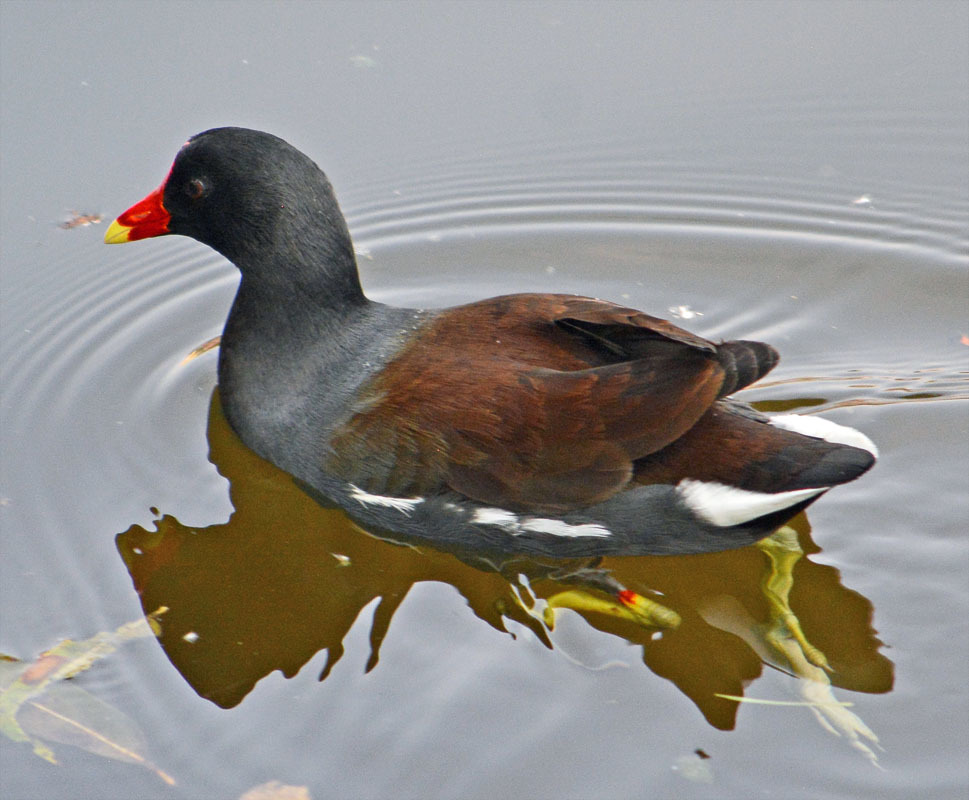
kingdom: Animalia
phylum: Chordata
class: Aves
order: Gruiformes
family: Rallidae
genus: Gallinula
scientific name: Gallinula chloropus
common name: Common moorhen
